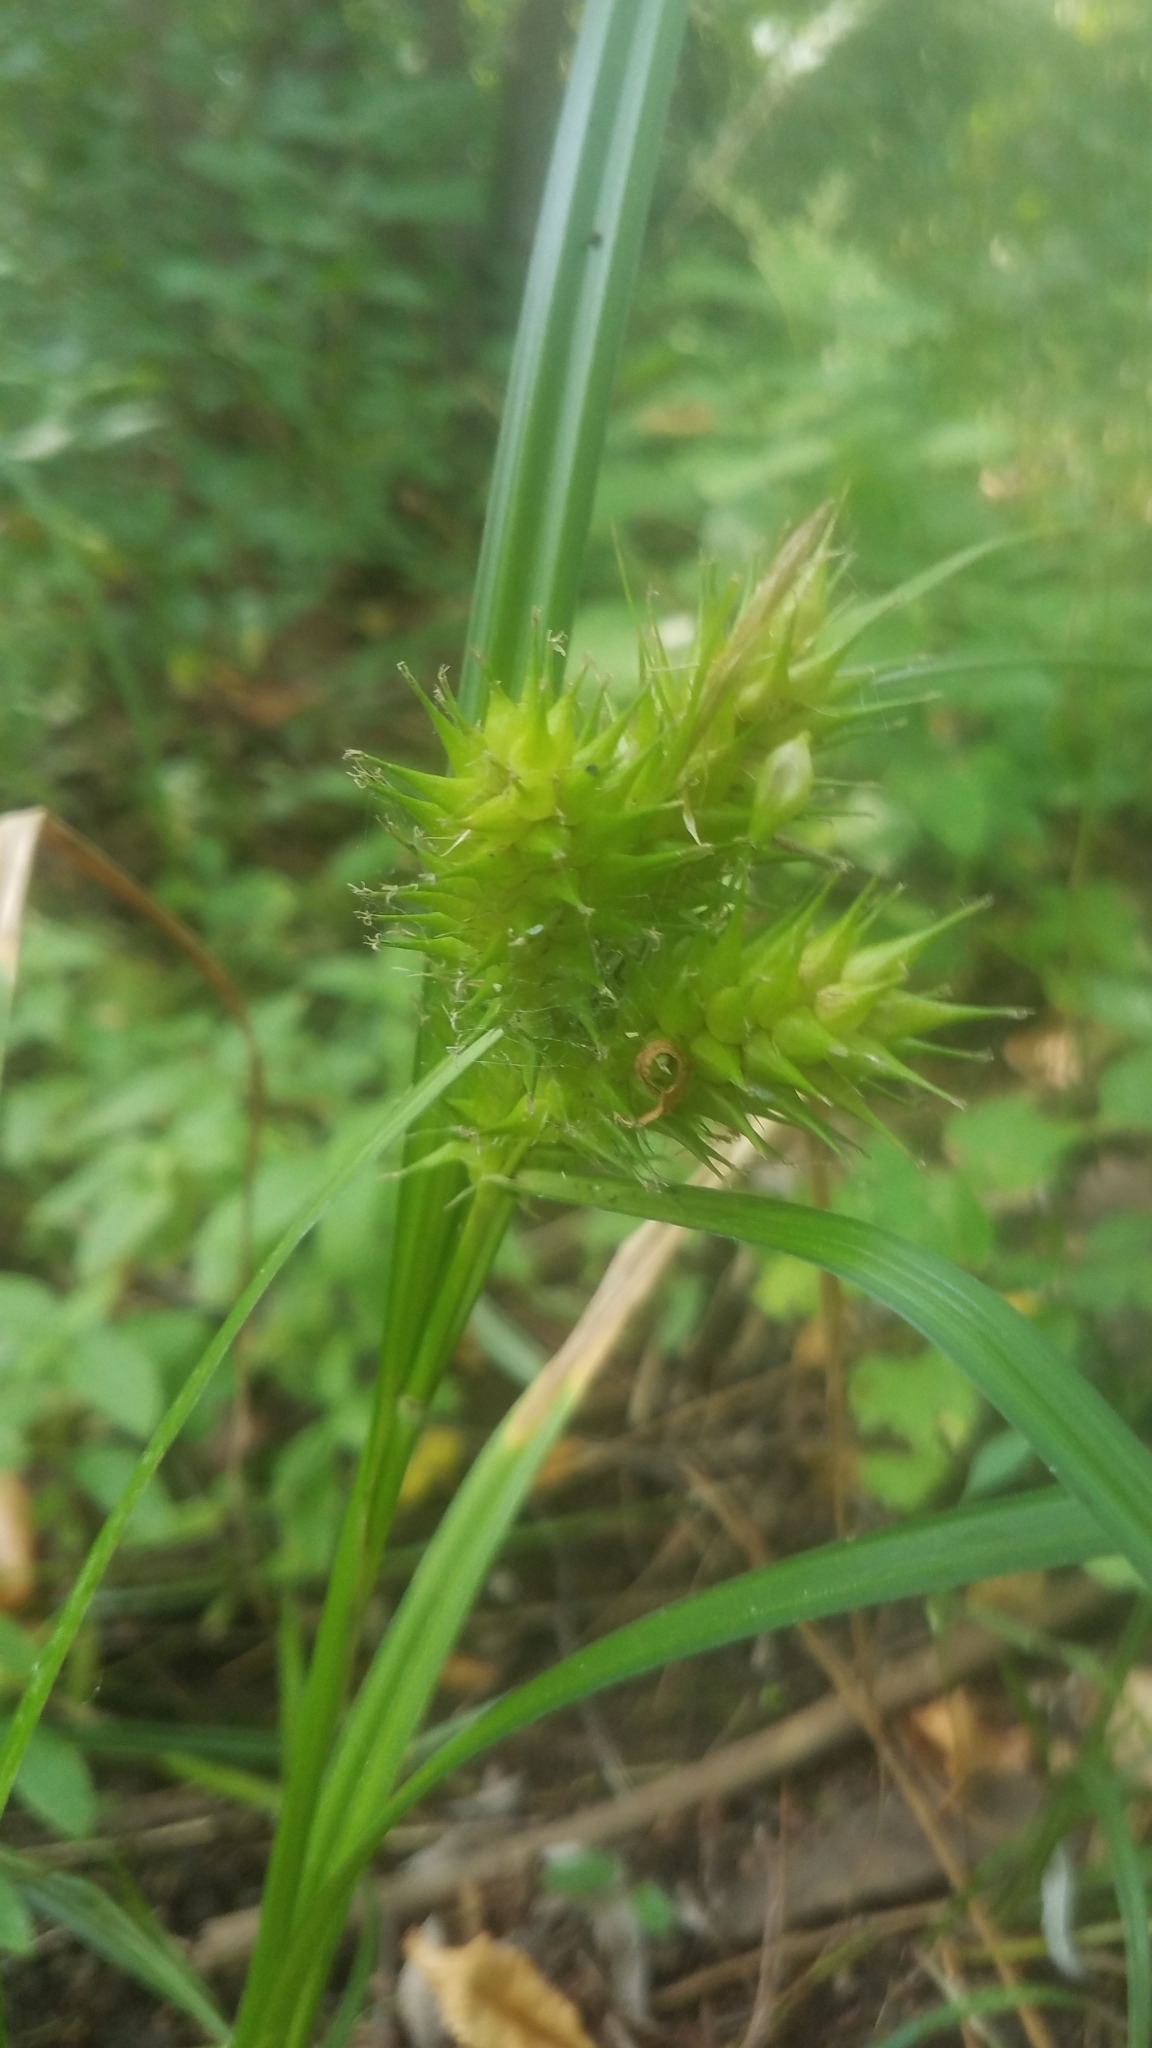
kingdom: Plantae
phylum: Tracheophyta
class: Liliopsida
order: Poales
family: Cyperaceae
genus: Carex
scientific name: Carex lupulina
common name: Hop sedge
